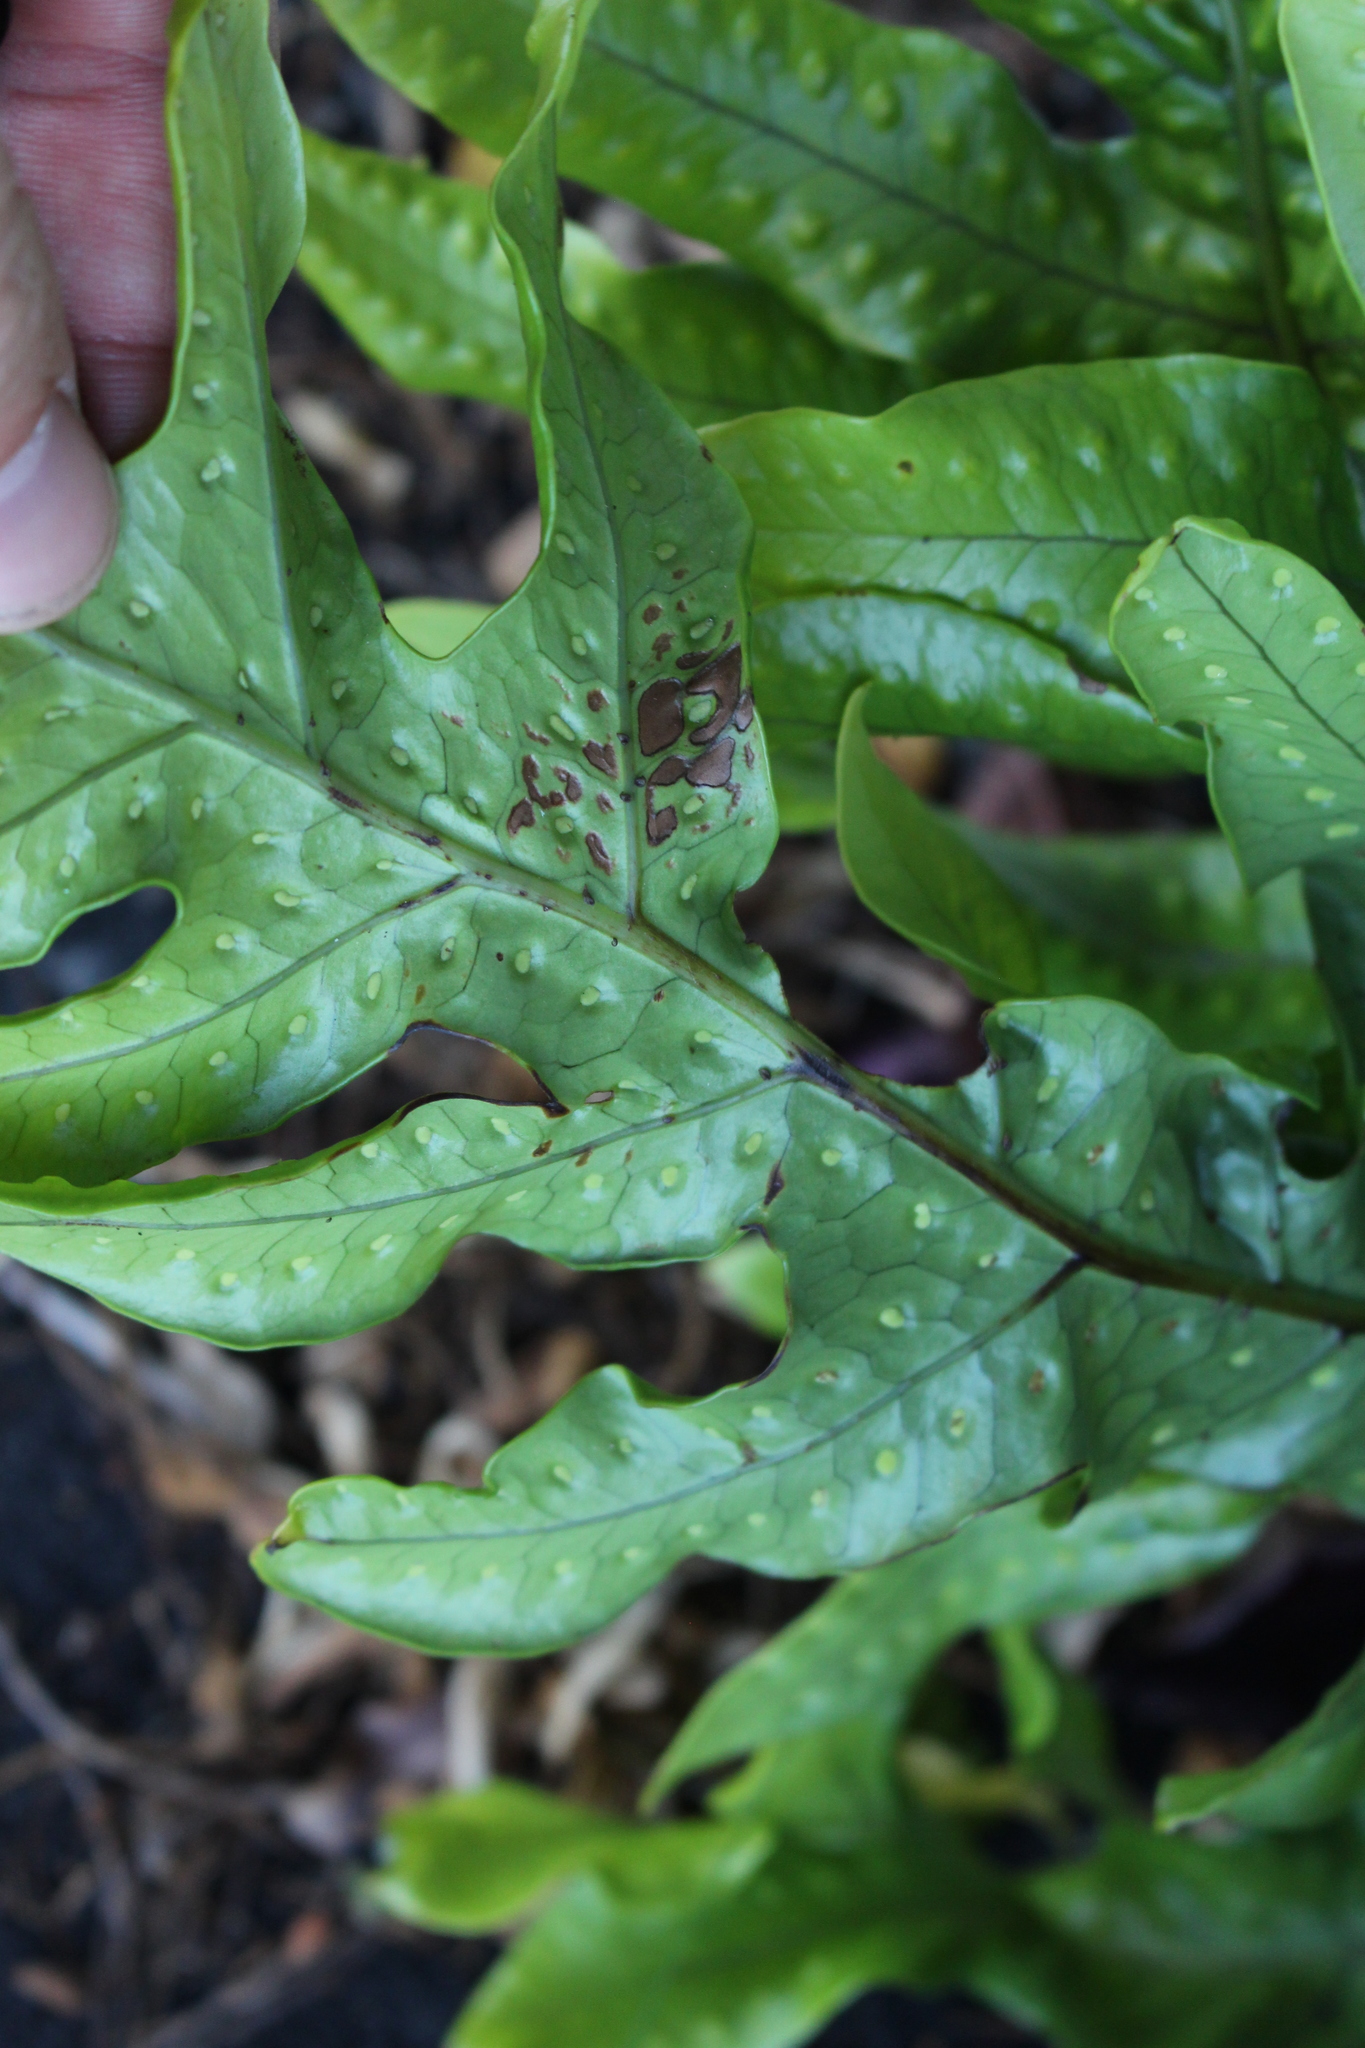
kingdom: Plantae
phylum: Tracheophyta
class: Polypodiopsida
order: Polypodiales
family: Polypodiaceae
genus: Lecanopteris
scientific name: Lecanopteris pustulata
